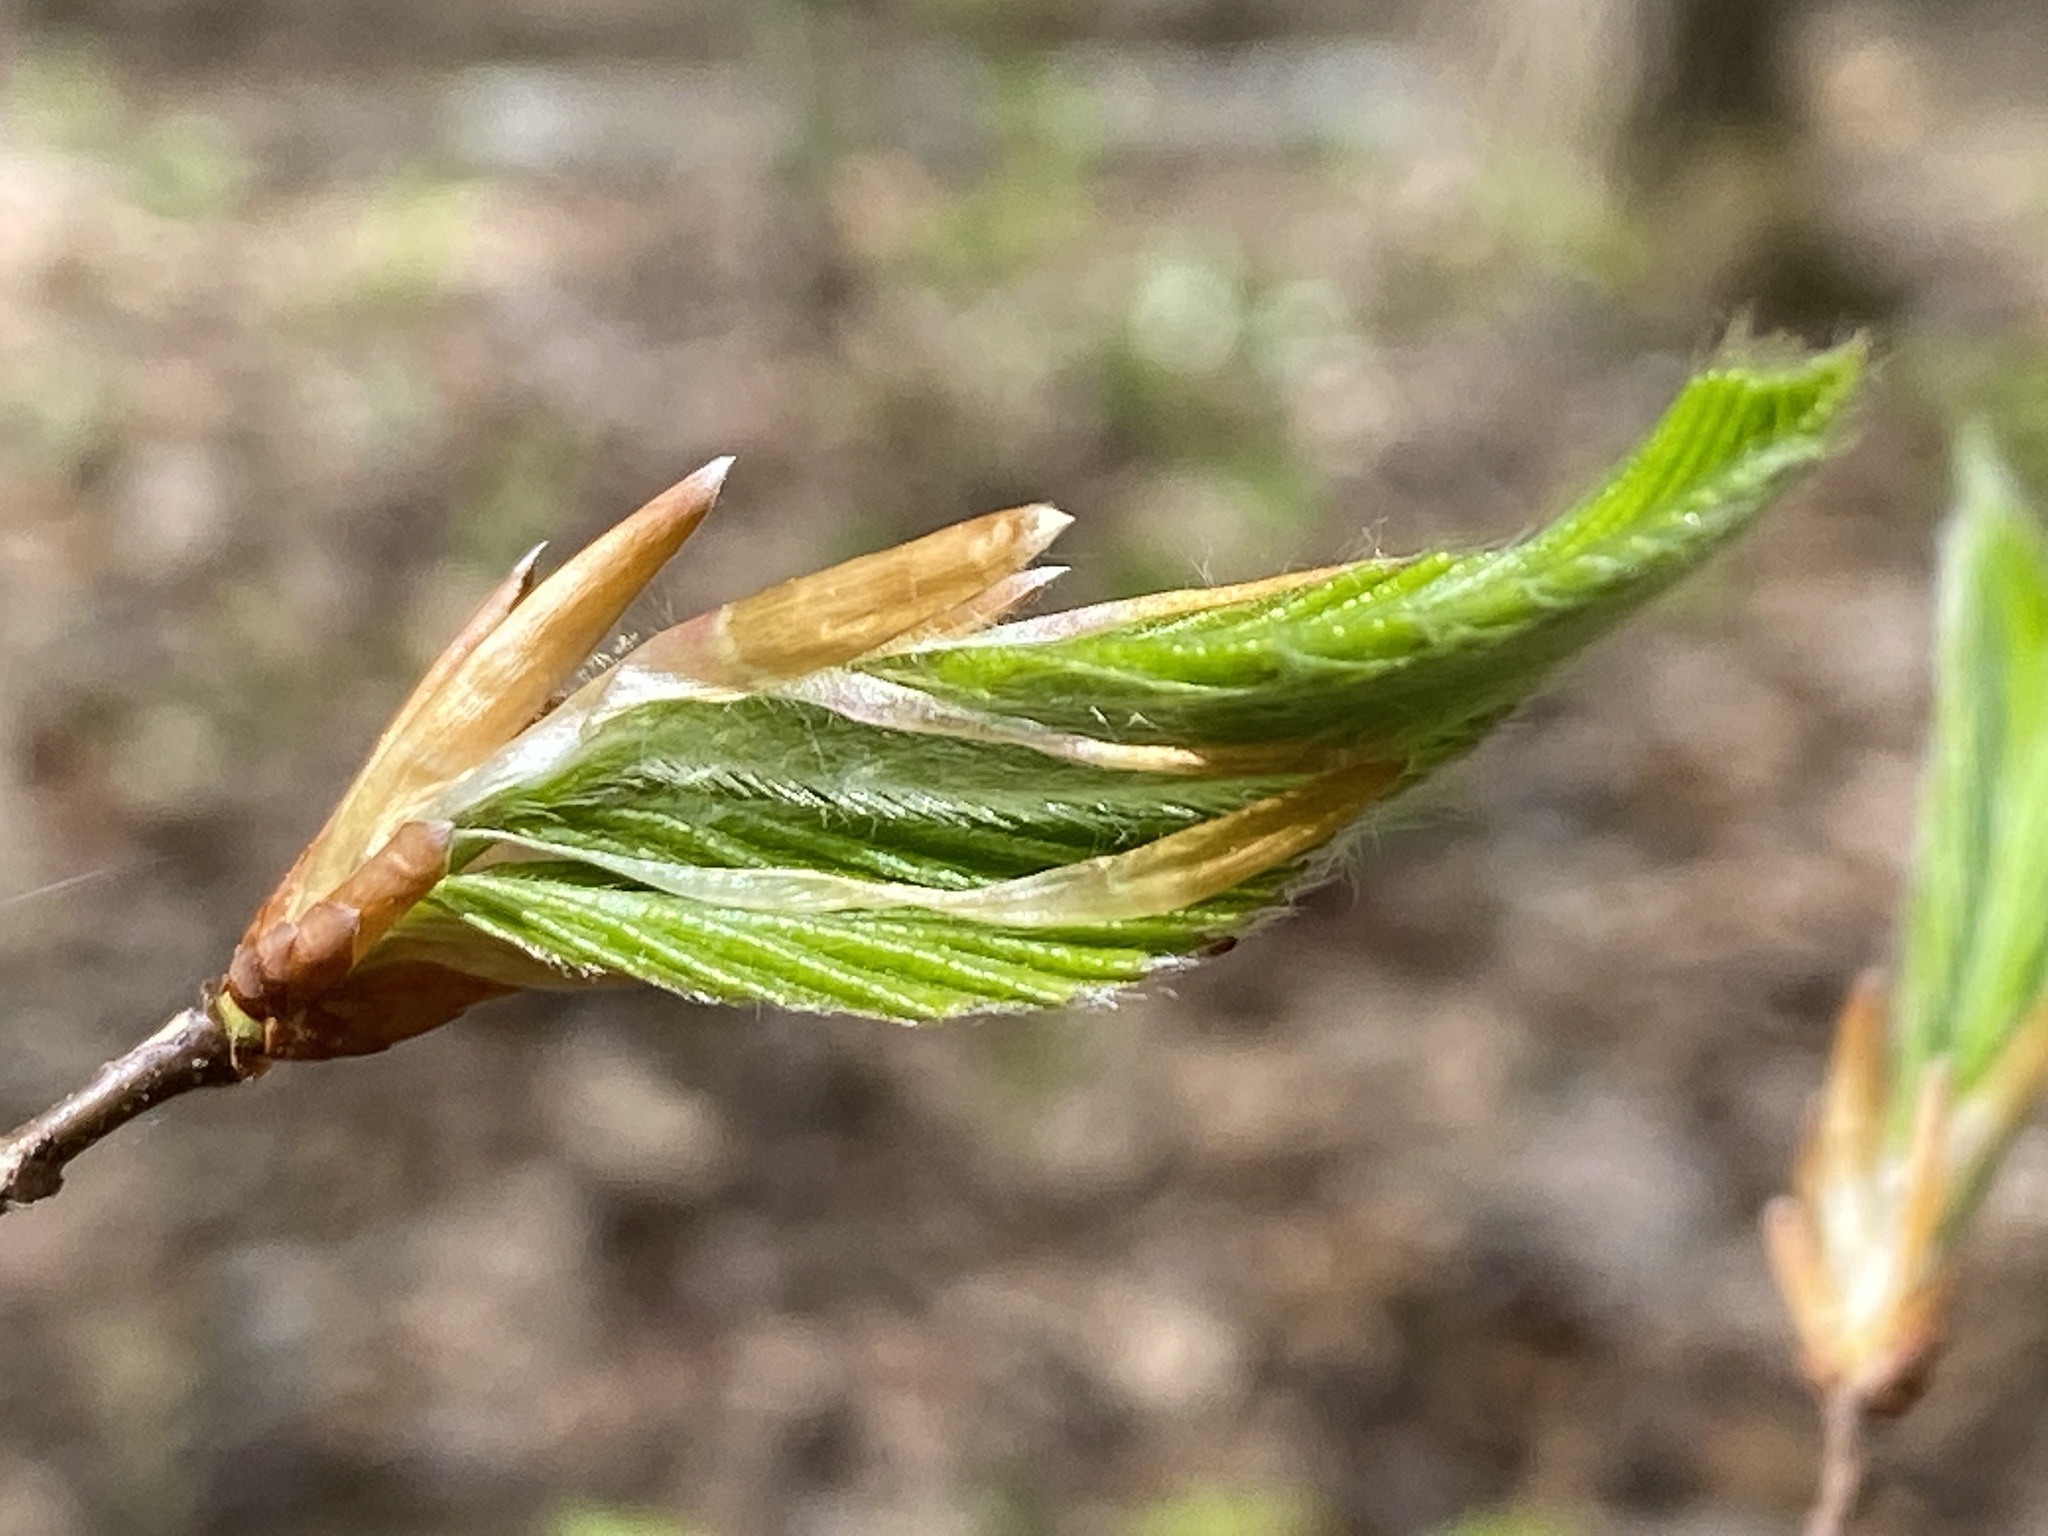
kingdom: Plantae
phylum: Tracheophyta
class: Magnoliopsida
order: Fagales
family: Fagaceae
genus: Fagus
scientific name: Fagus grandifolia
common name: American beech
